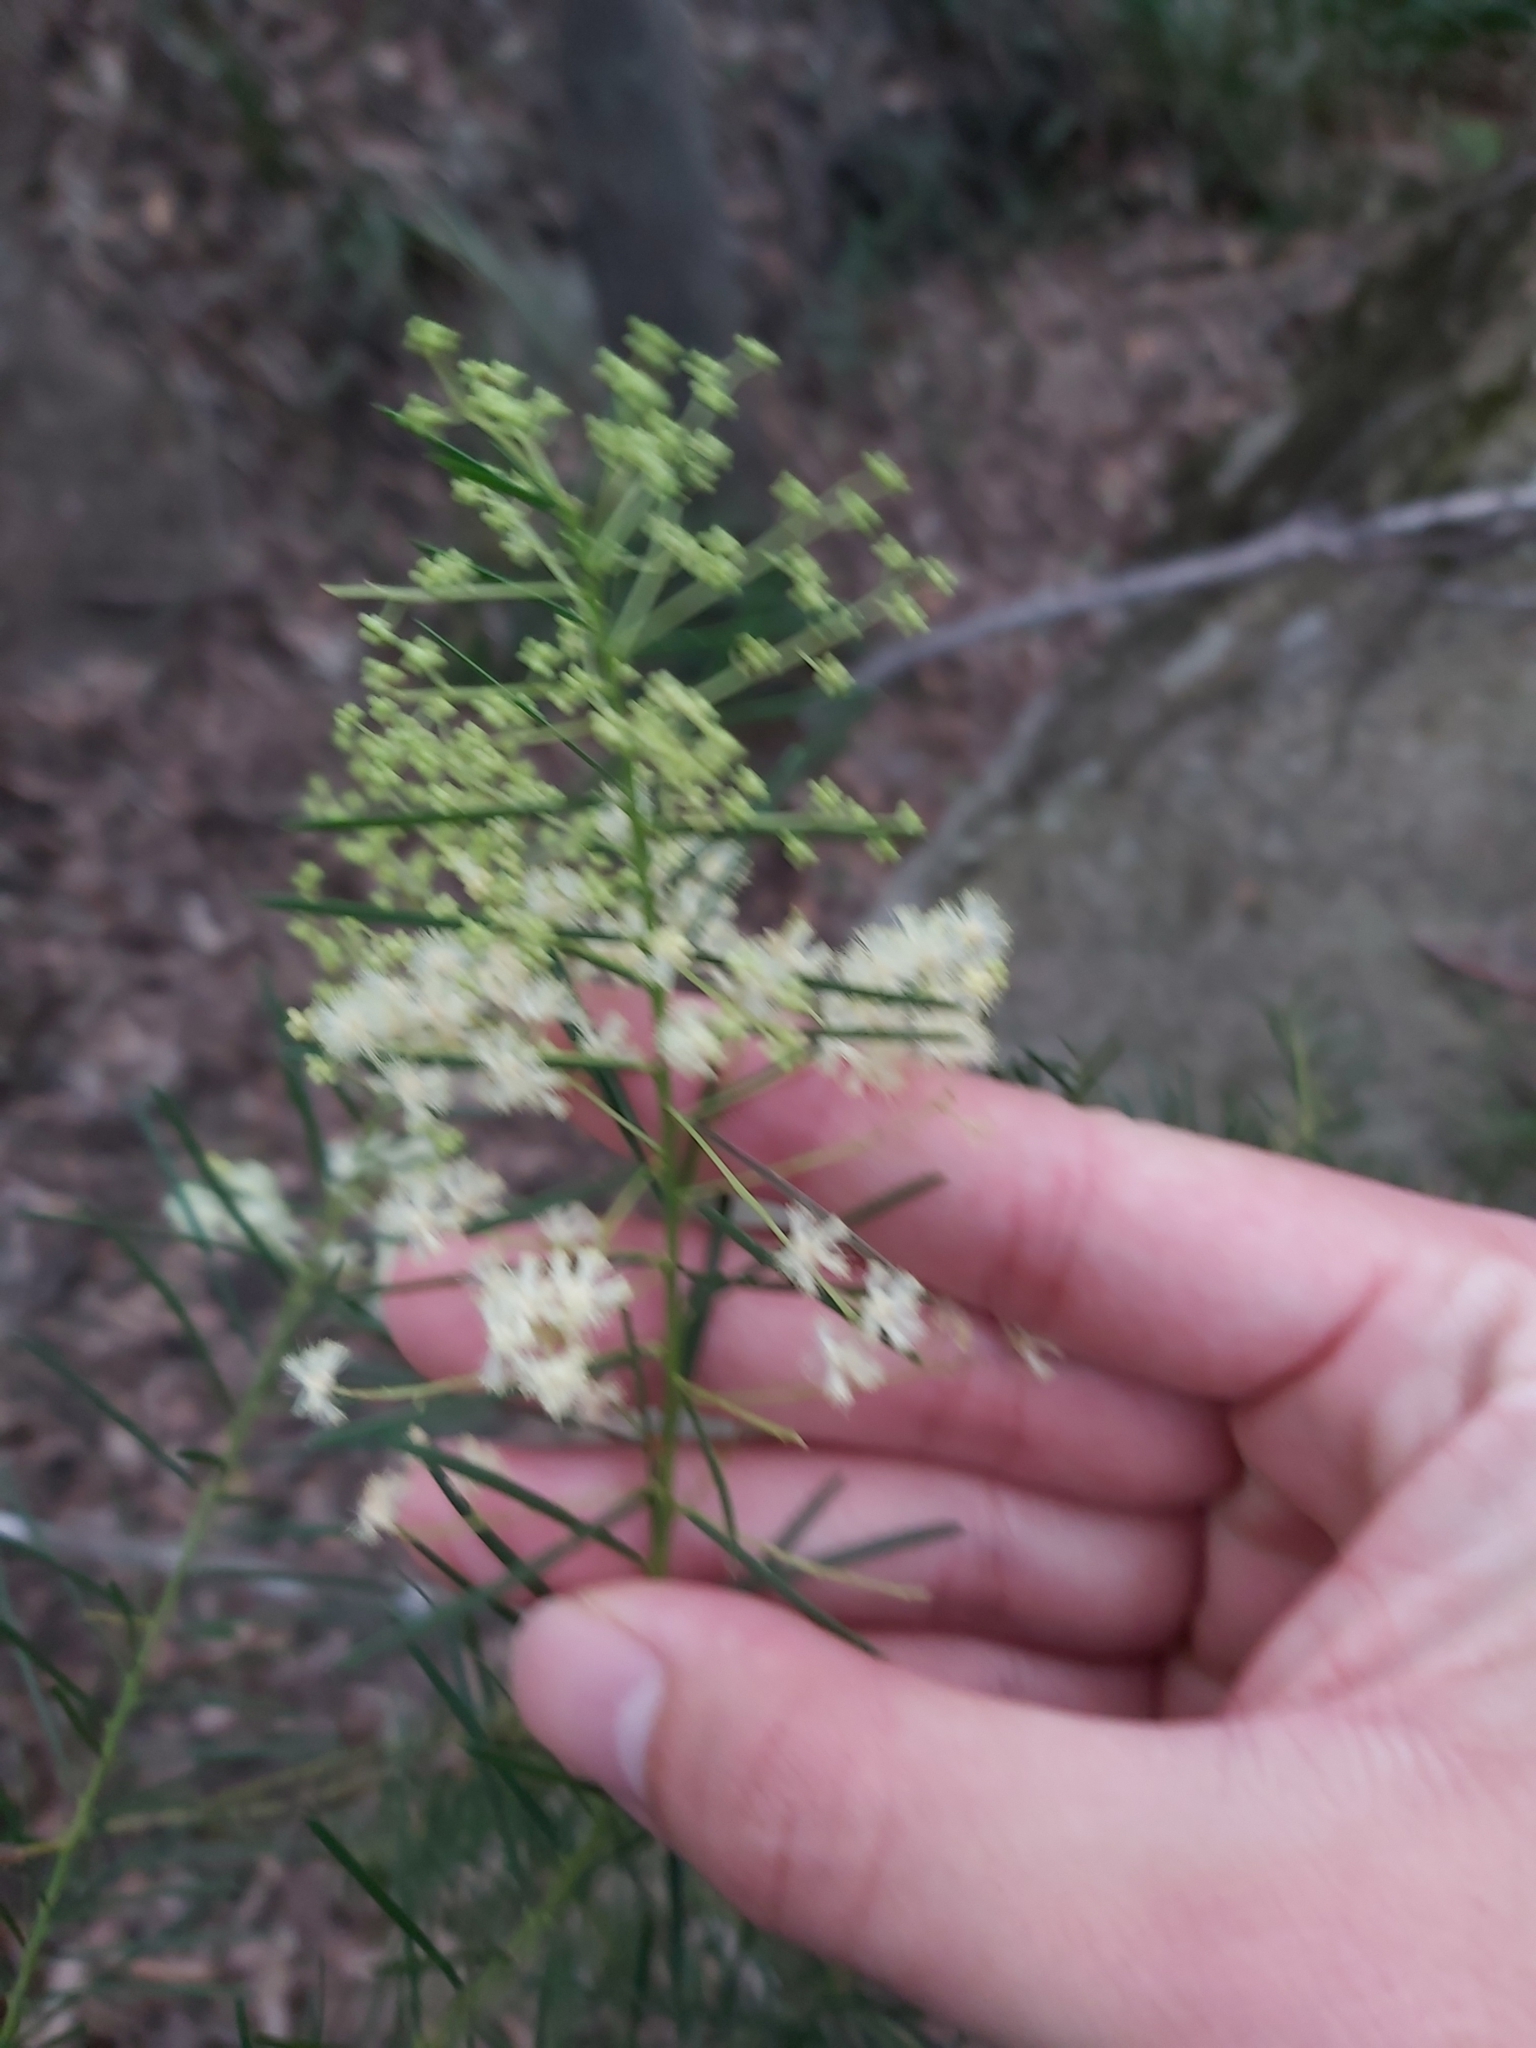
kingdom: Plantae
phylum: Tracheophyta
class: Magnoliopsida
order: Fabales
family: Fabaceae
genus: Acacia
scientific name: Acacia linifolia
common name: White wattle
